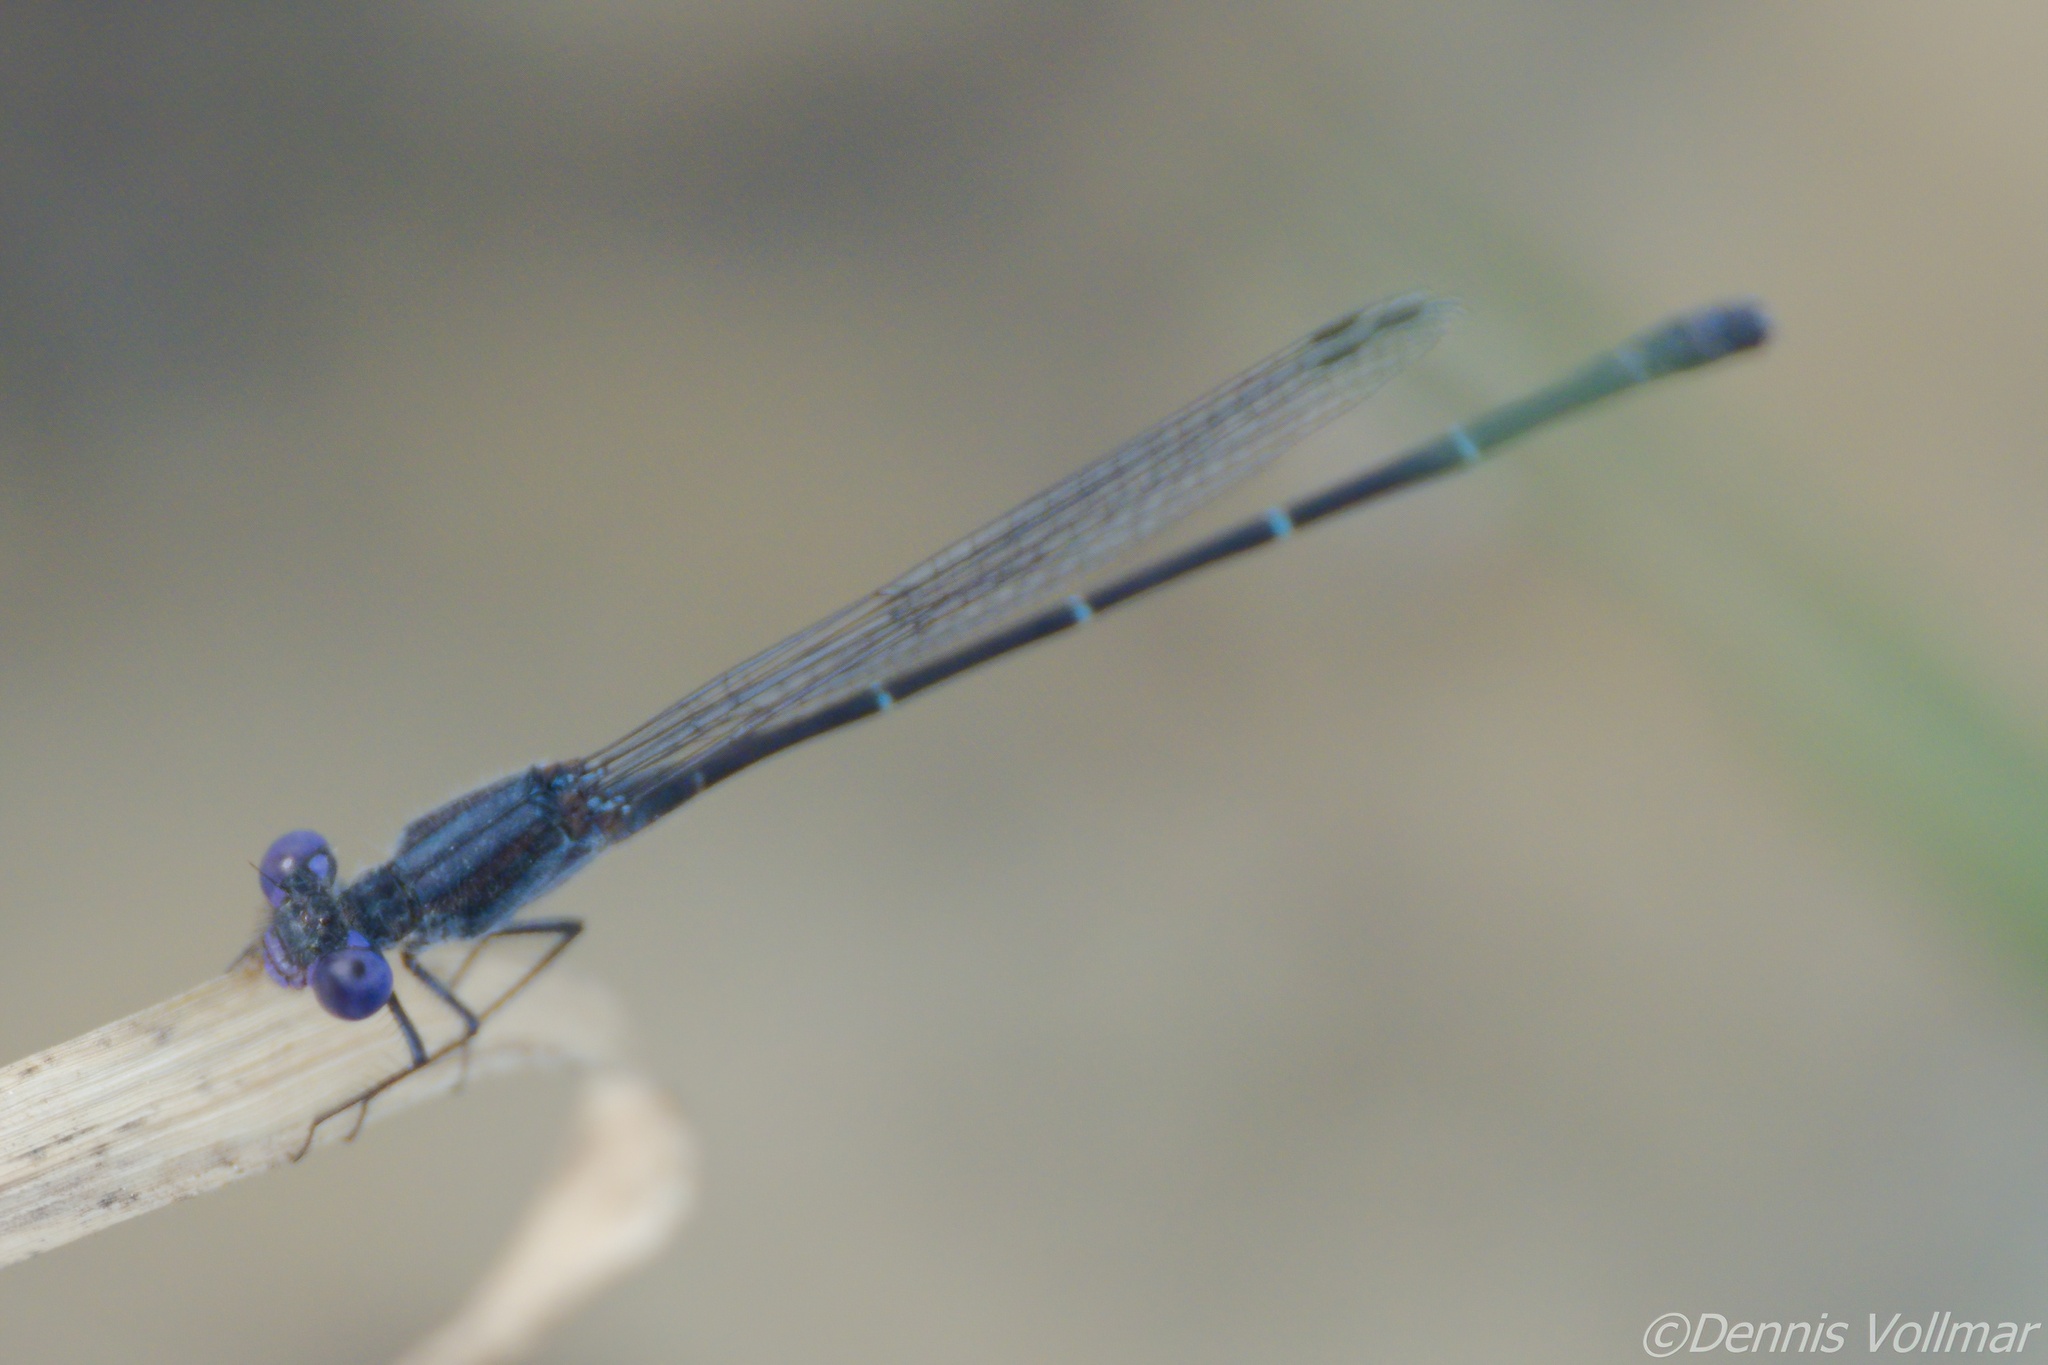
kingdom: Animalia
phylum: Arthropoda
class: Insecta
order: Odonata
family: Coenagrionidae
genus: Argia
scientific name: Argia translata
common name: Dusky dancer
